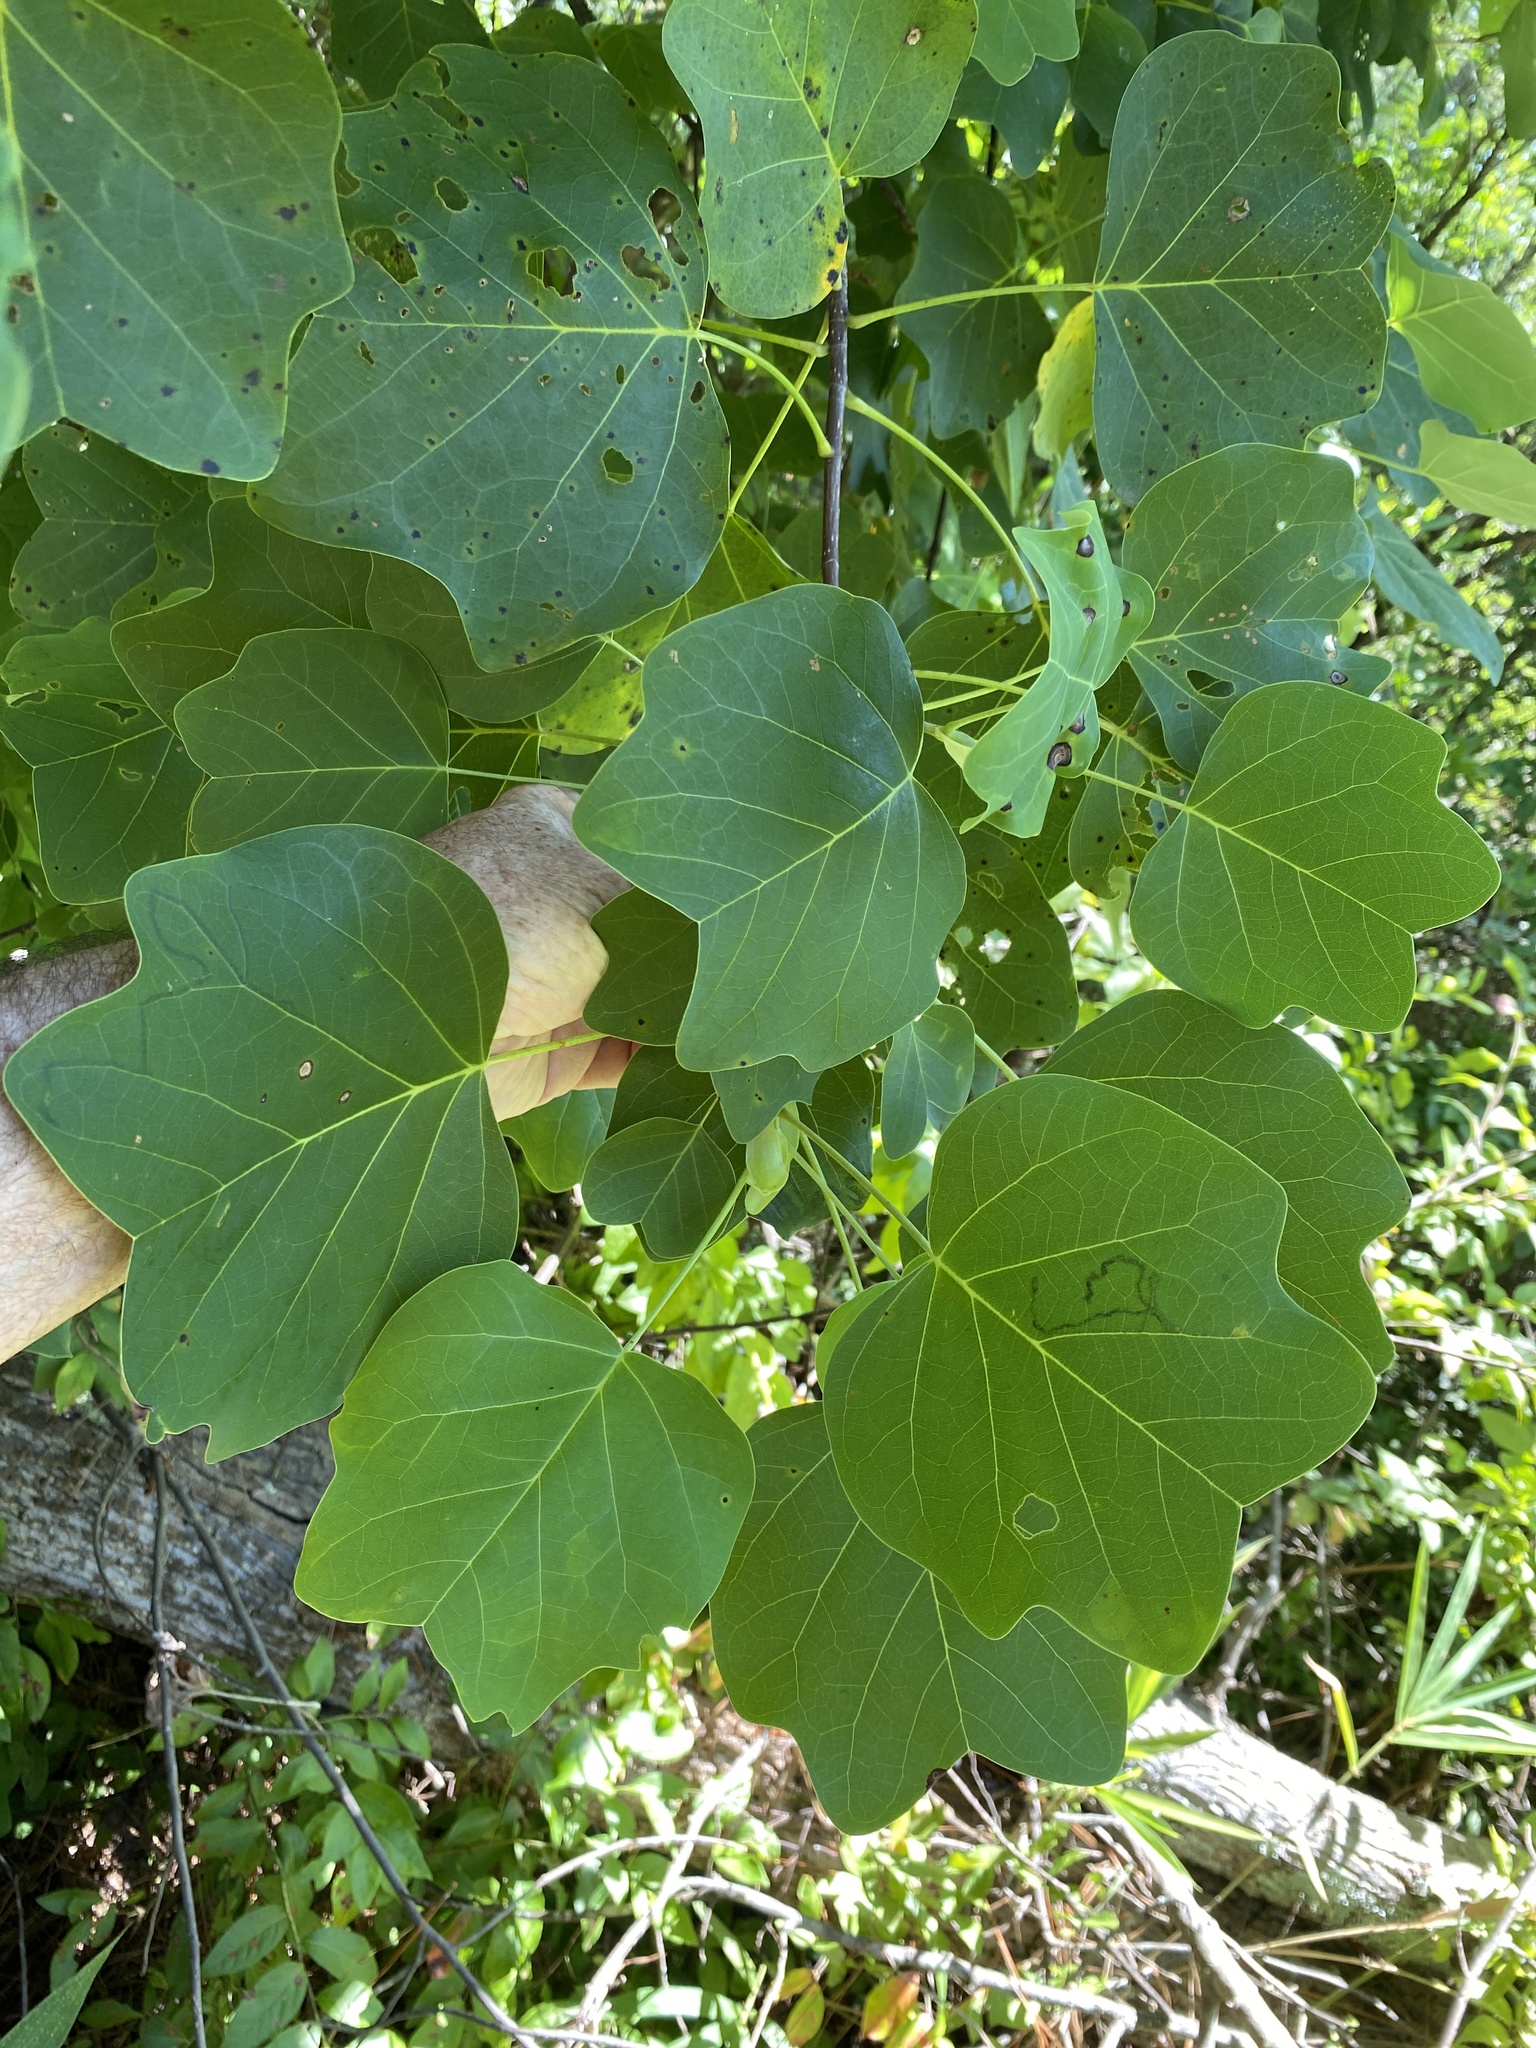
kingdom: Plantae
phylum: Tracheophyta
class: Magnoliopsida
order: Magnoliales
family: Magnoliaceae
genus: Liriodendron
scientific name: Liriodendron tulipifera
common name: Tulip tree
